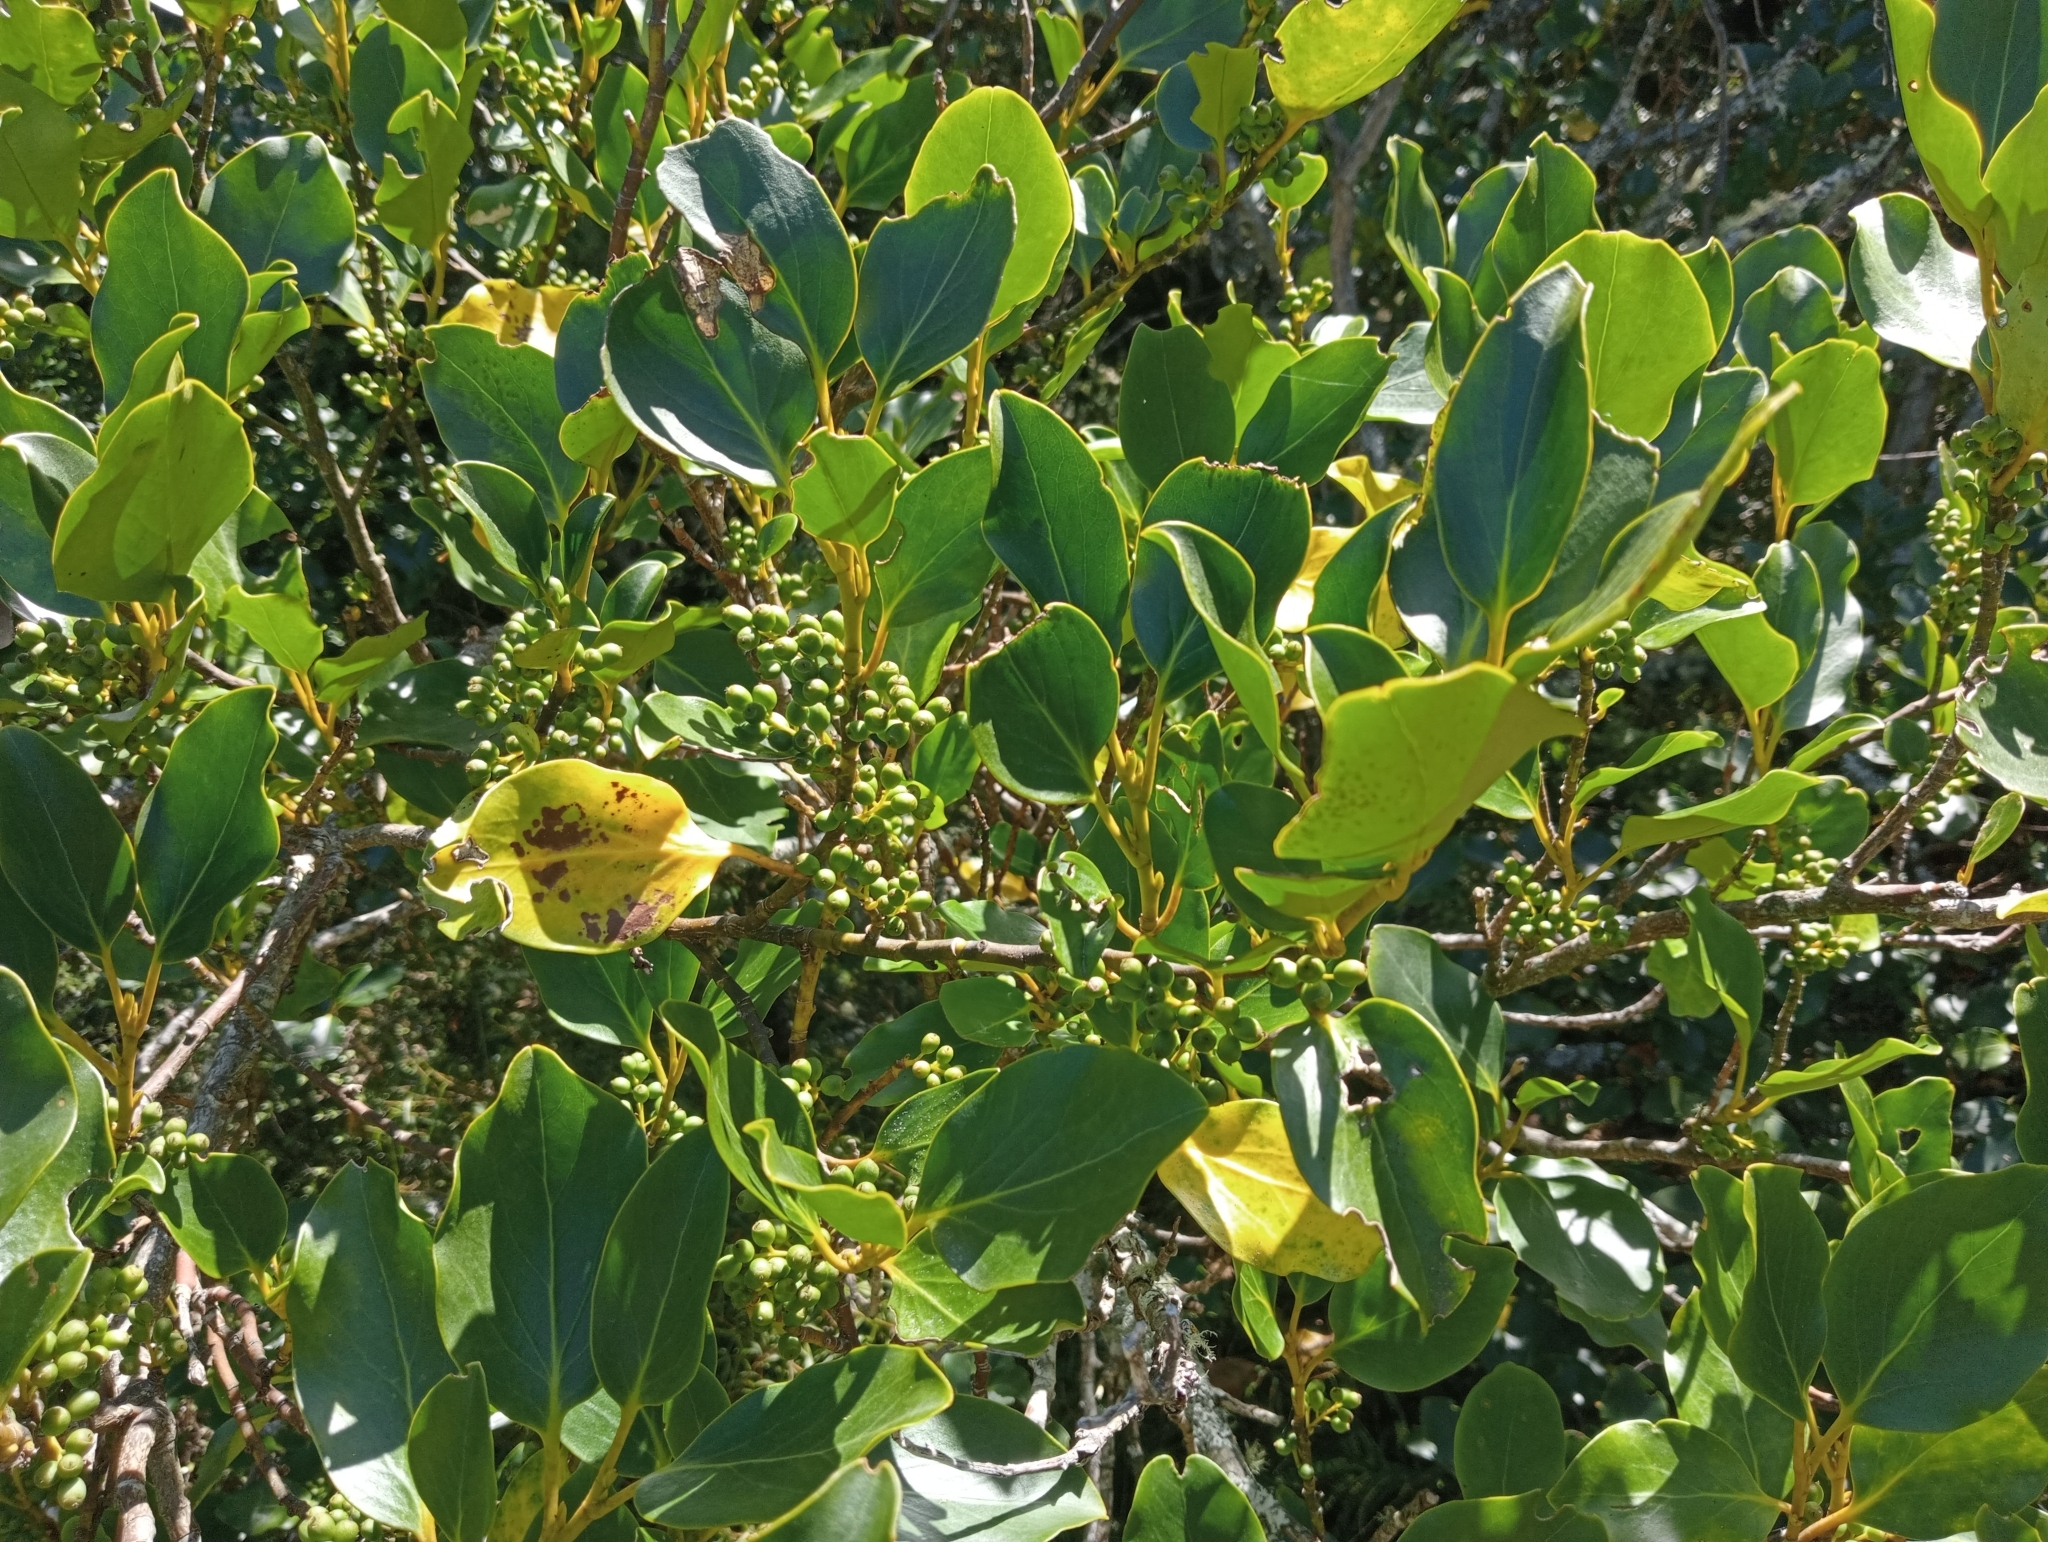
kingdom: Plantae
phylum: Tracheophyta
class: Magnoliopsida
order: Apiales
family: Griseliniaceae
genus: Griselinia
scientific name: Griselinia littoralis
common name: New zealand broadleaf
